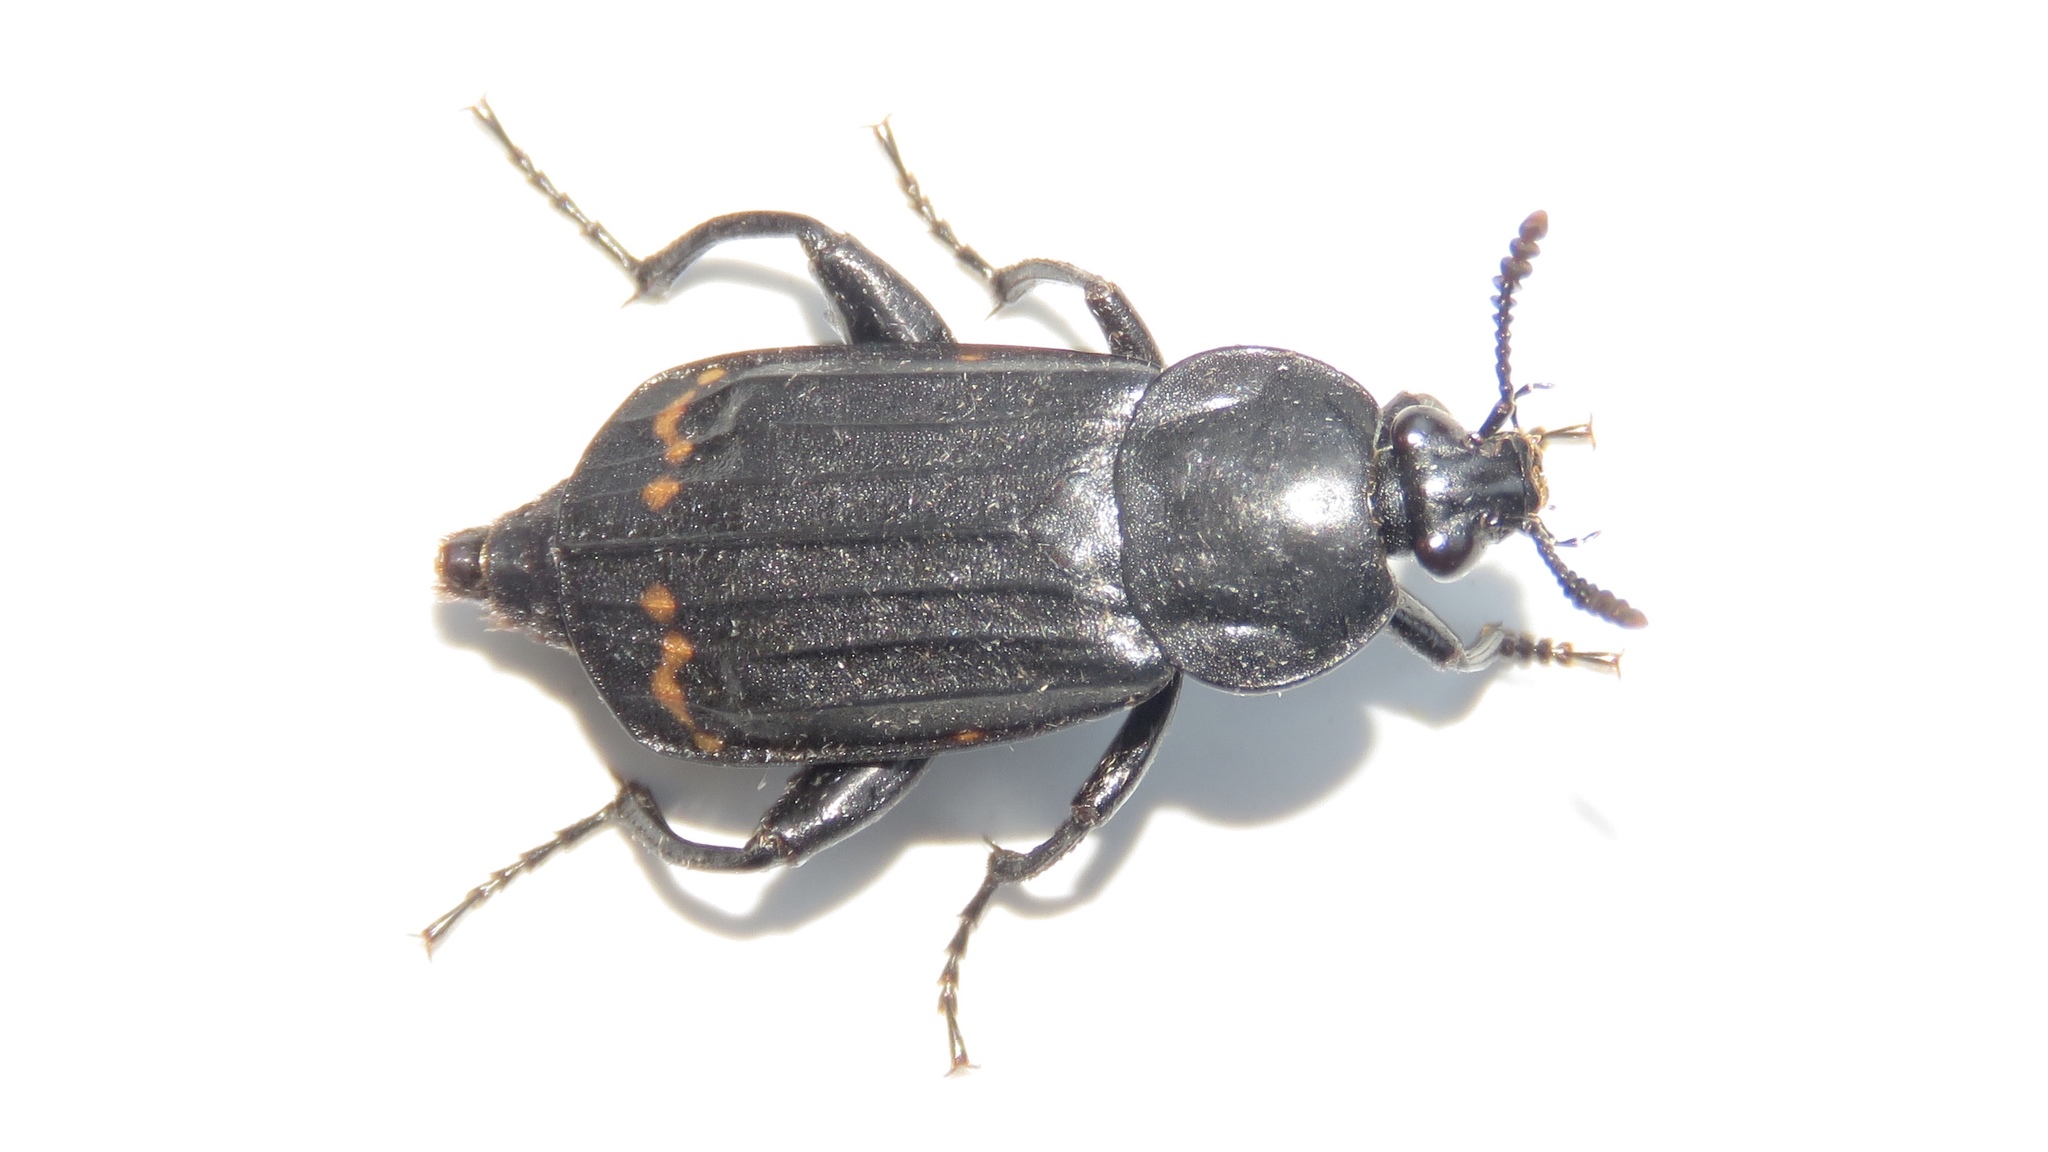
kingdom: Animalia
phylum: Arthropoda
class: Insecta
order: Coleoptera
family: Staphylinidae
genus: Necrodes
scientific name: Necrodes surinamensis
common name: Red-lined carrion beetle
